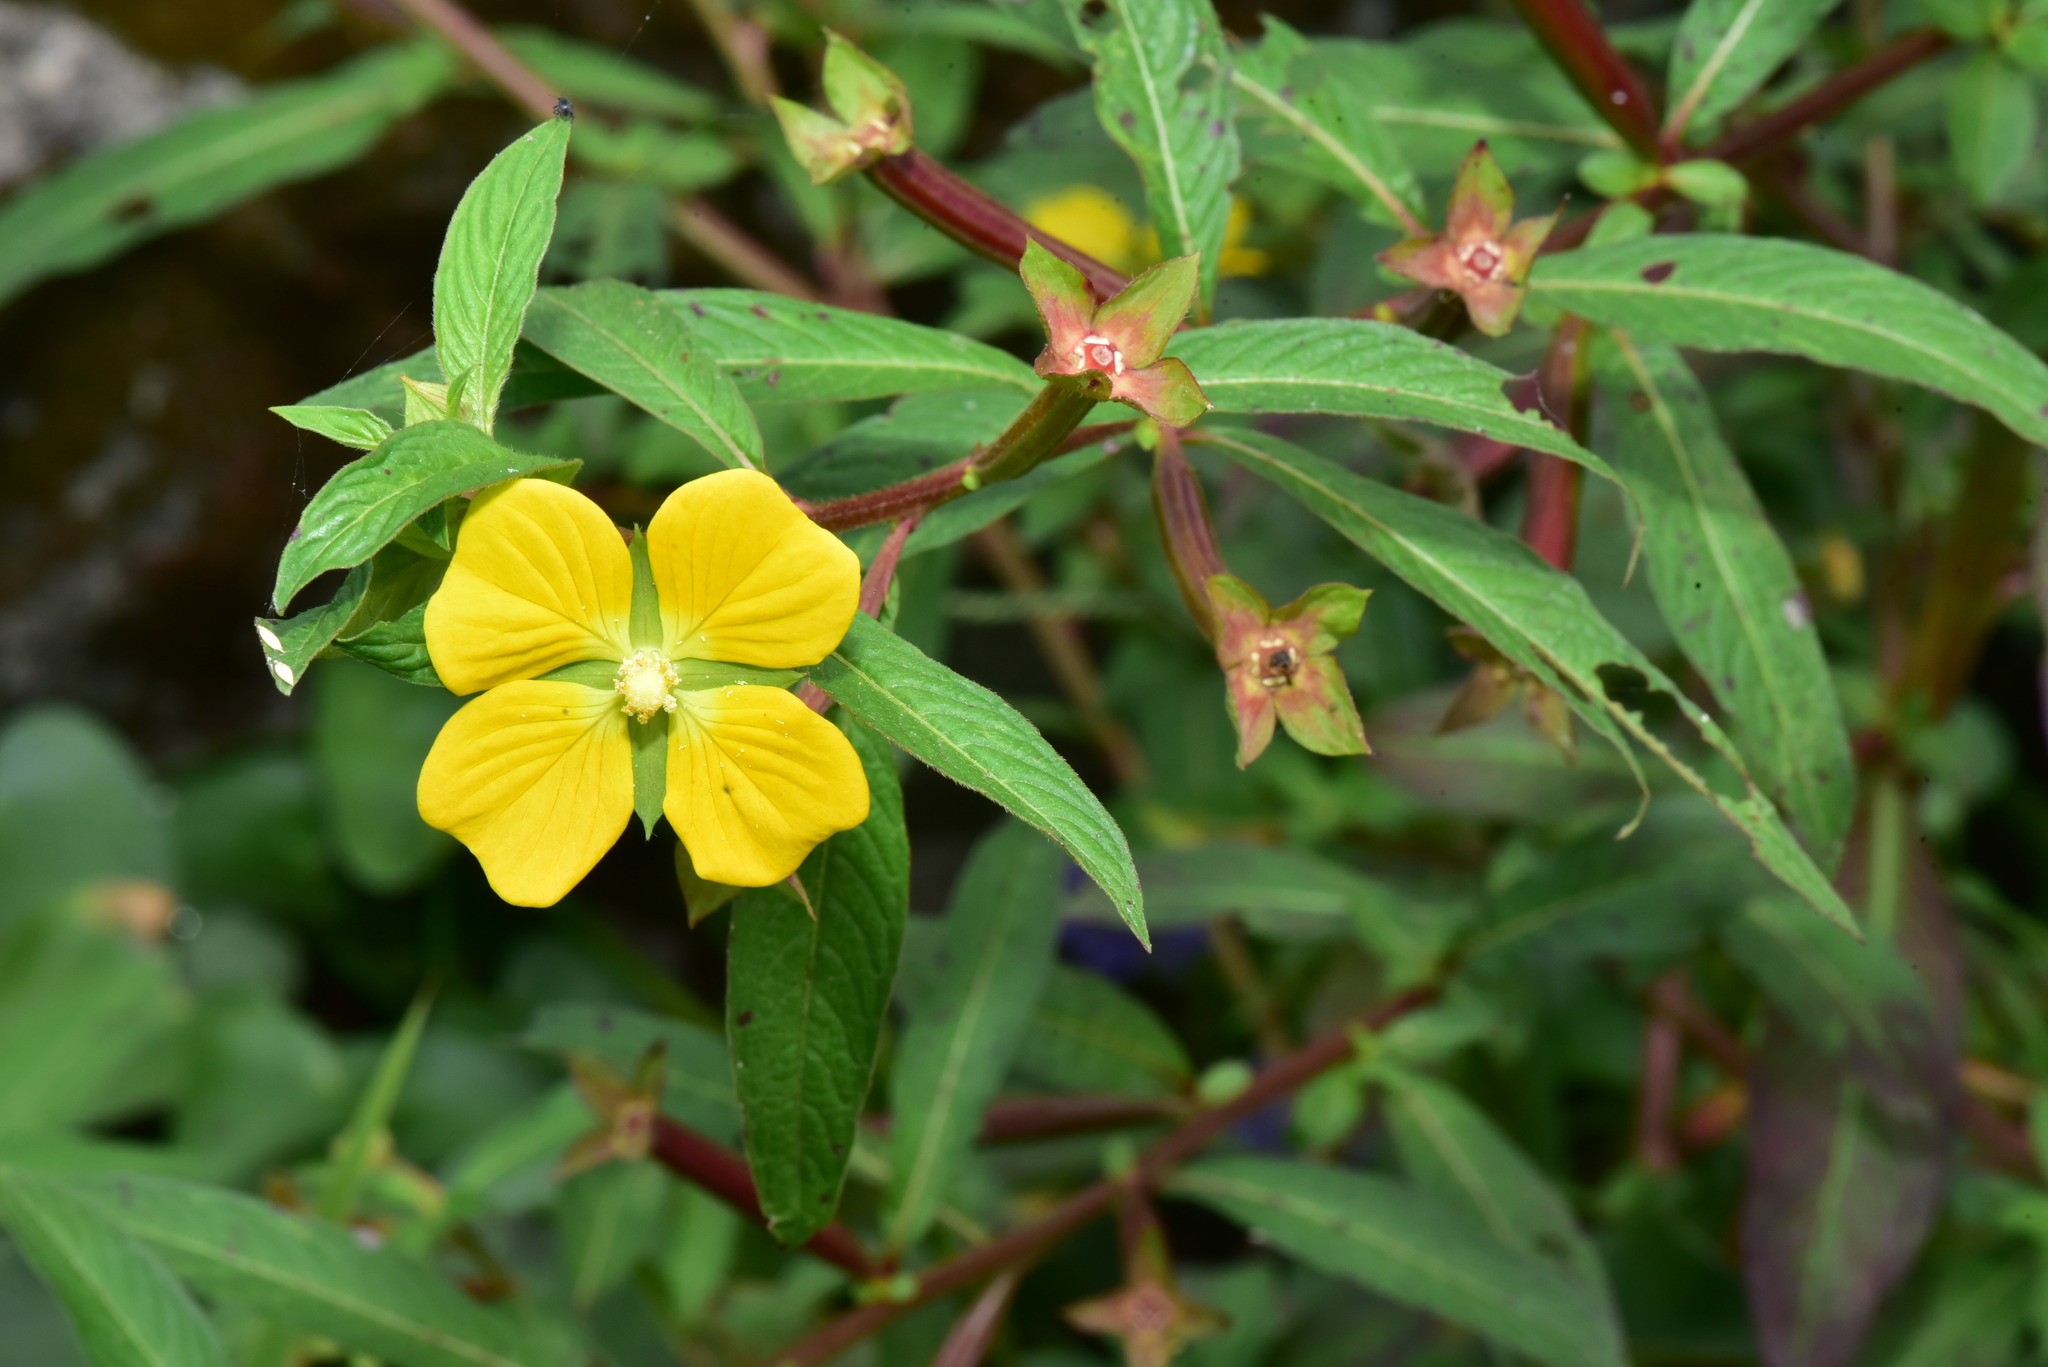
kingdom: Plantae
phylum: Tracheophyta
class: Magnoliopsida
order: Myrtales
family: Onagraceae
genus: Ludwigia
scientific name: Ludwigia octovalvis
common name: Water-primrose
